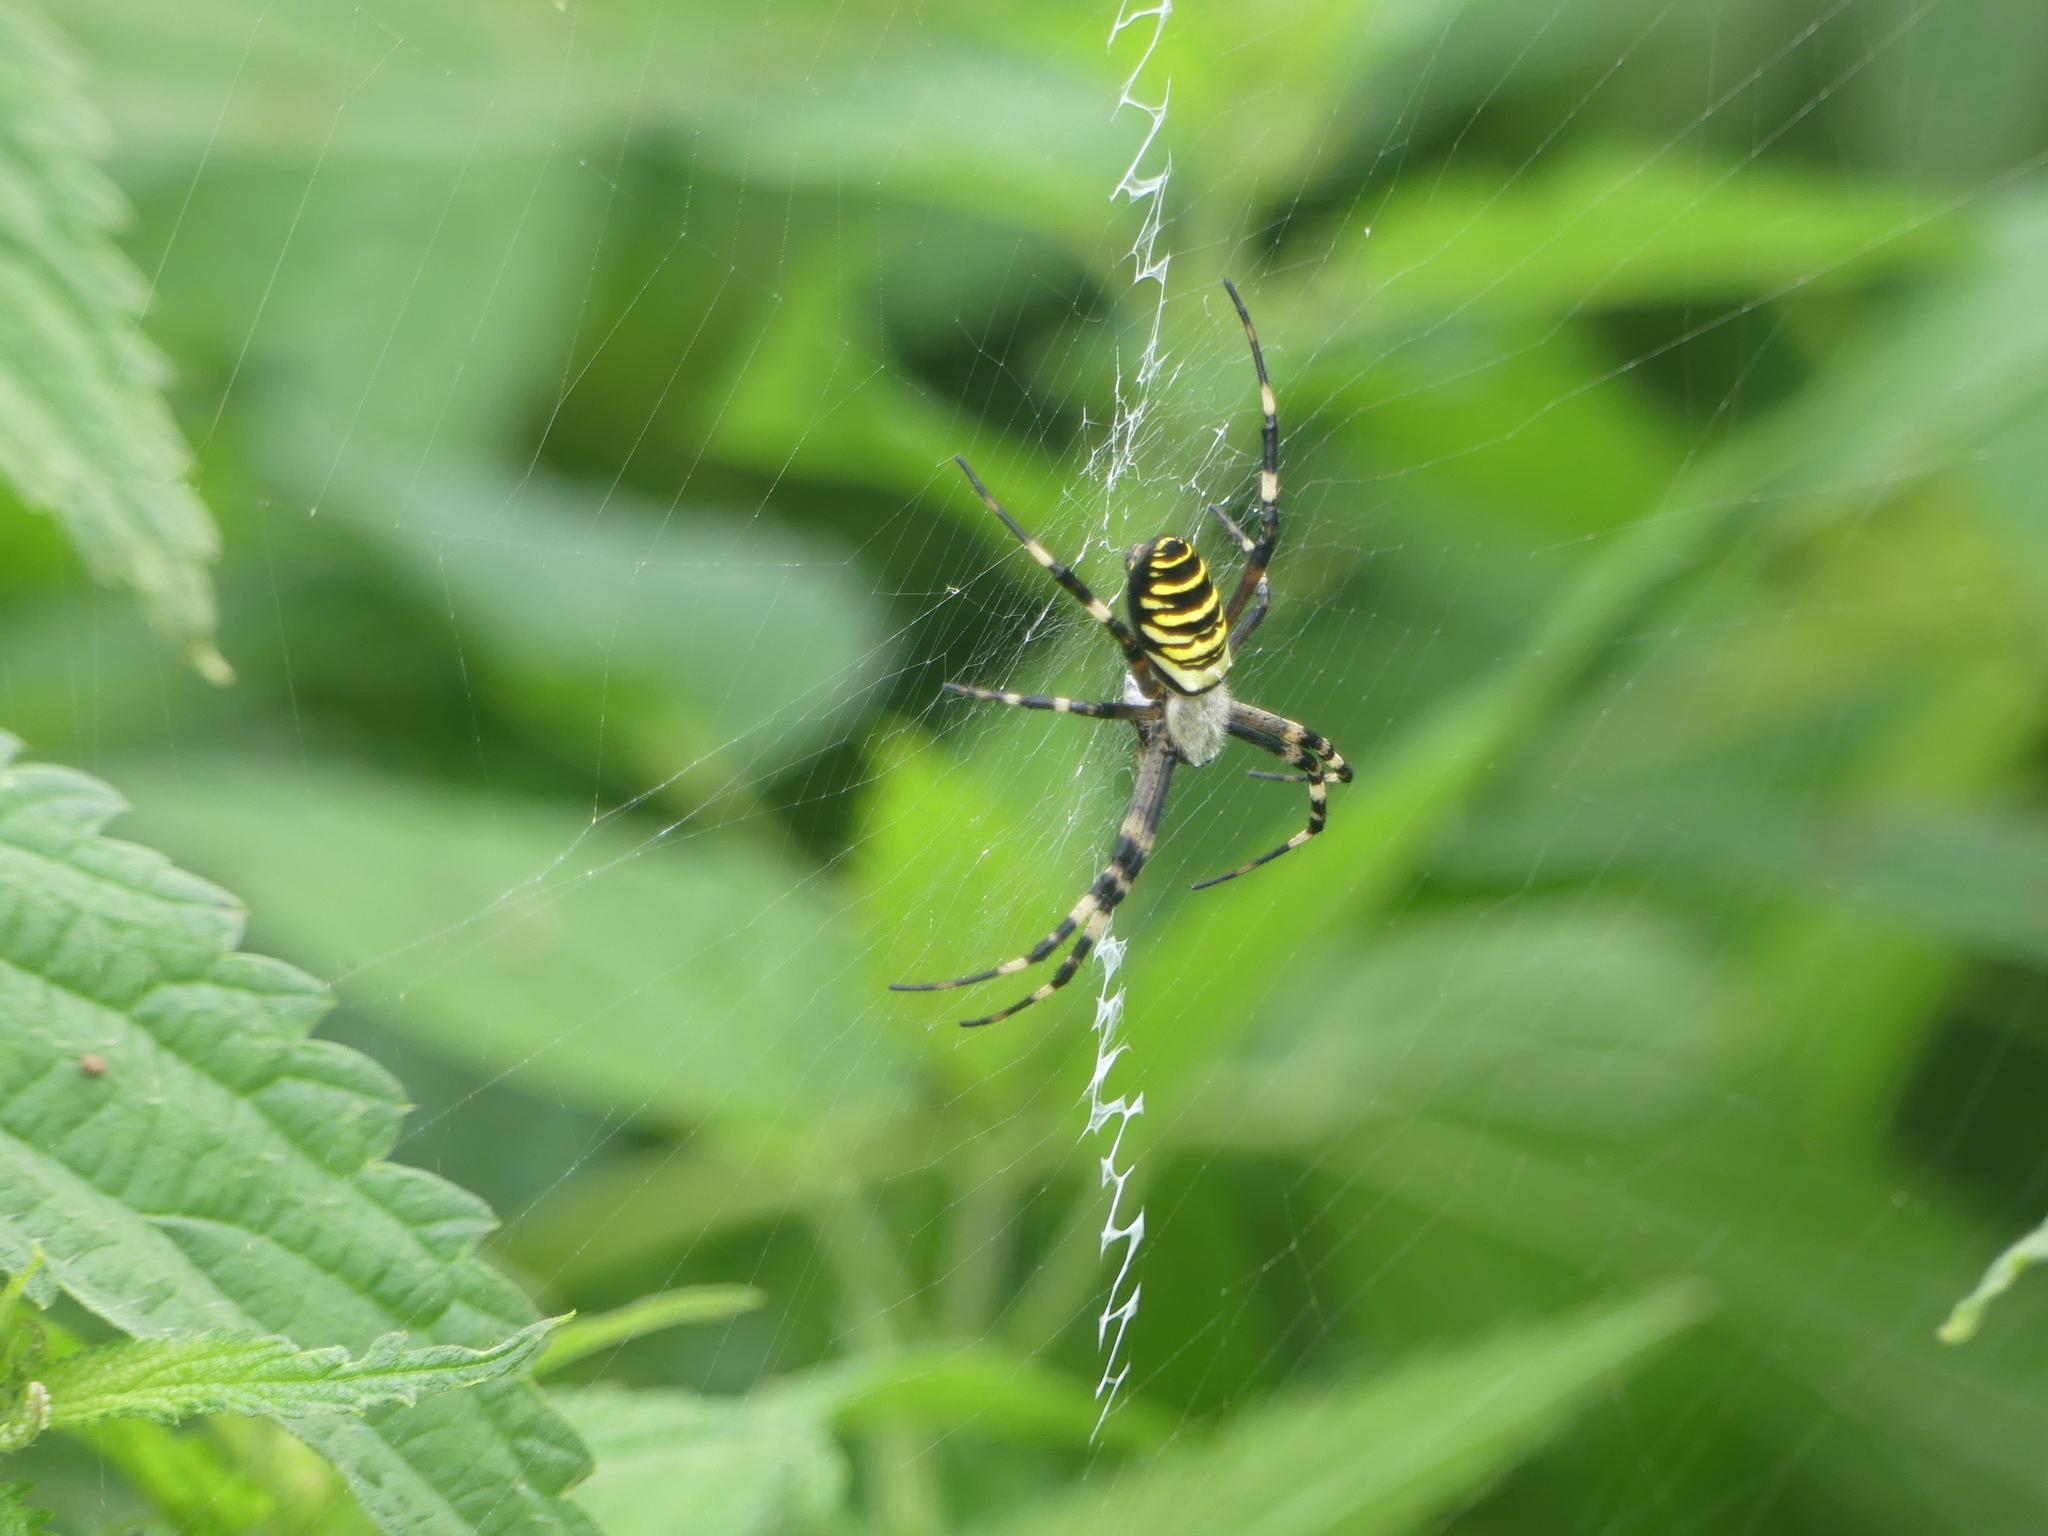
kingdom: Animalia
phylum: Arthropoda
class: Arachnida
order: Araneae
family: Araneidae
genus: Argiope
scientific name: Argiope bruennichi
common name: Wasp spider
